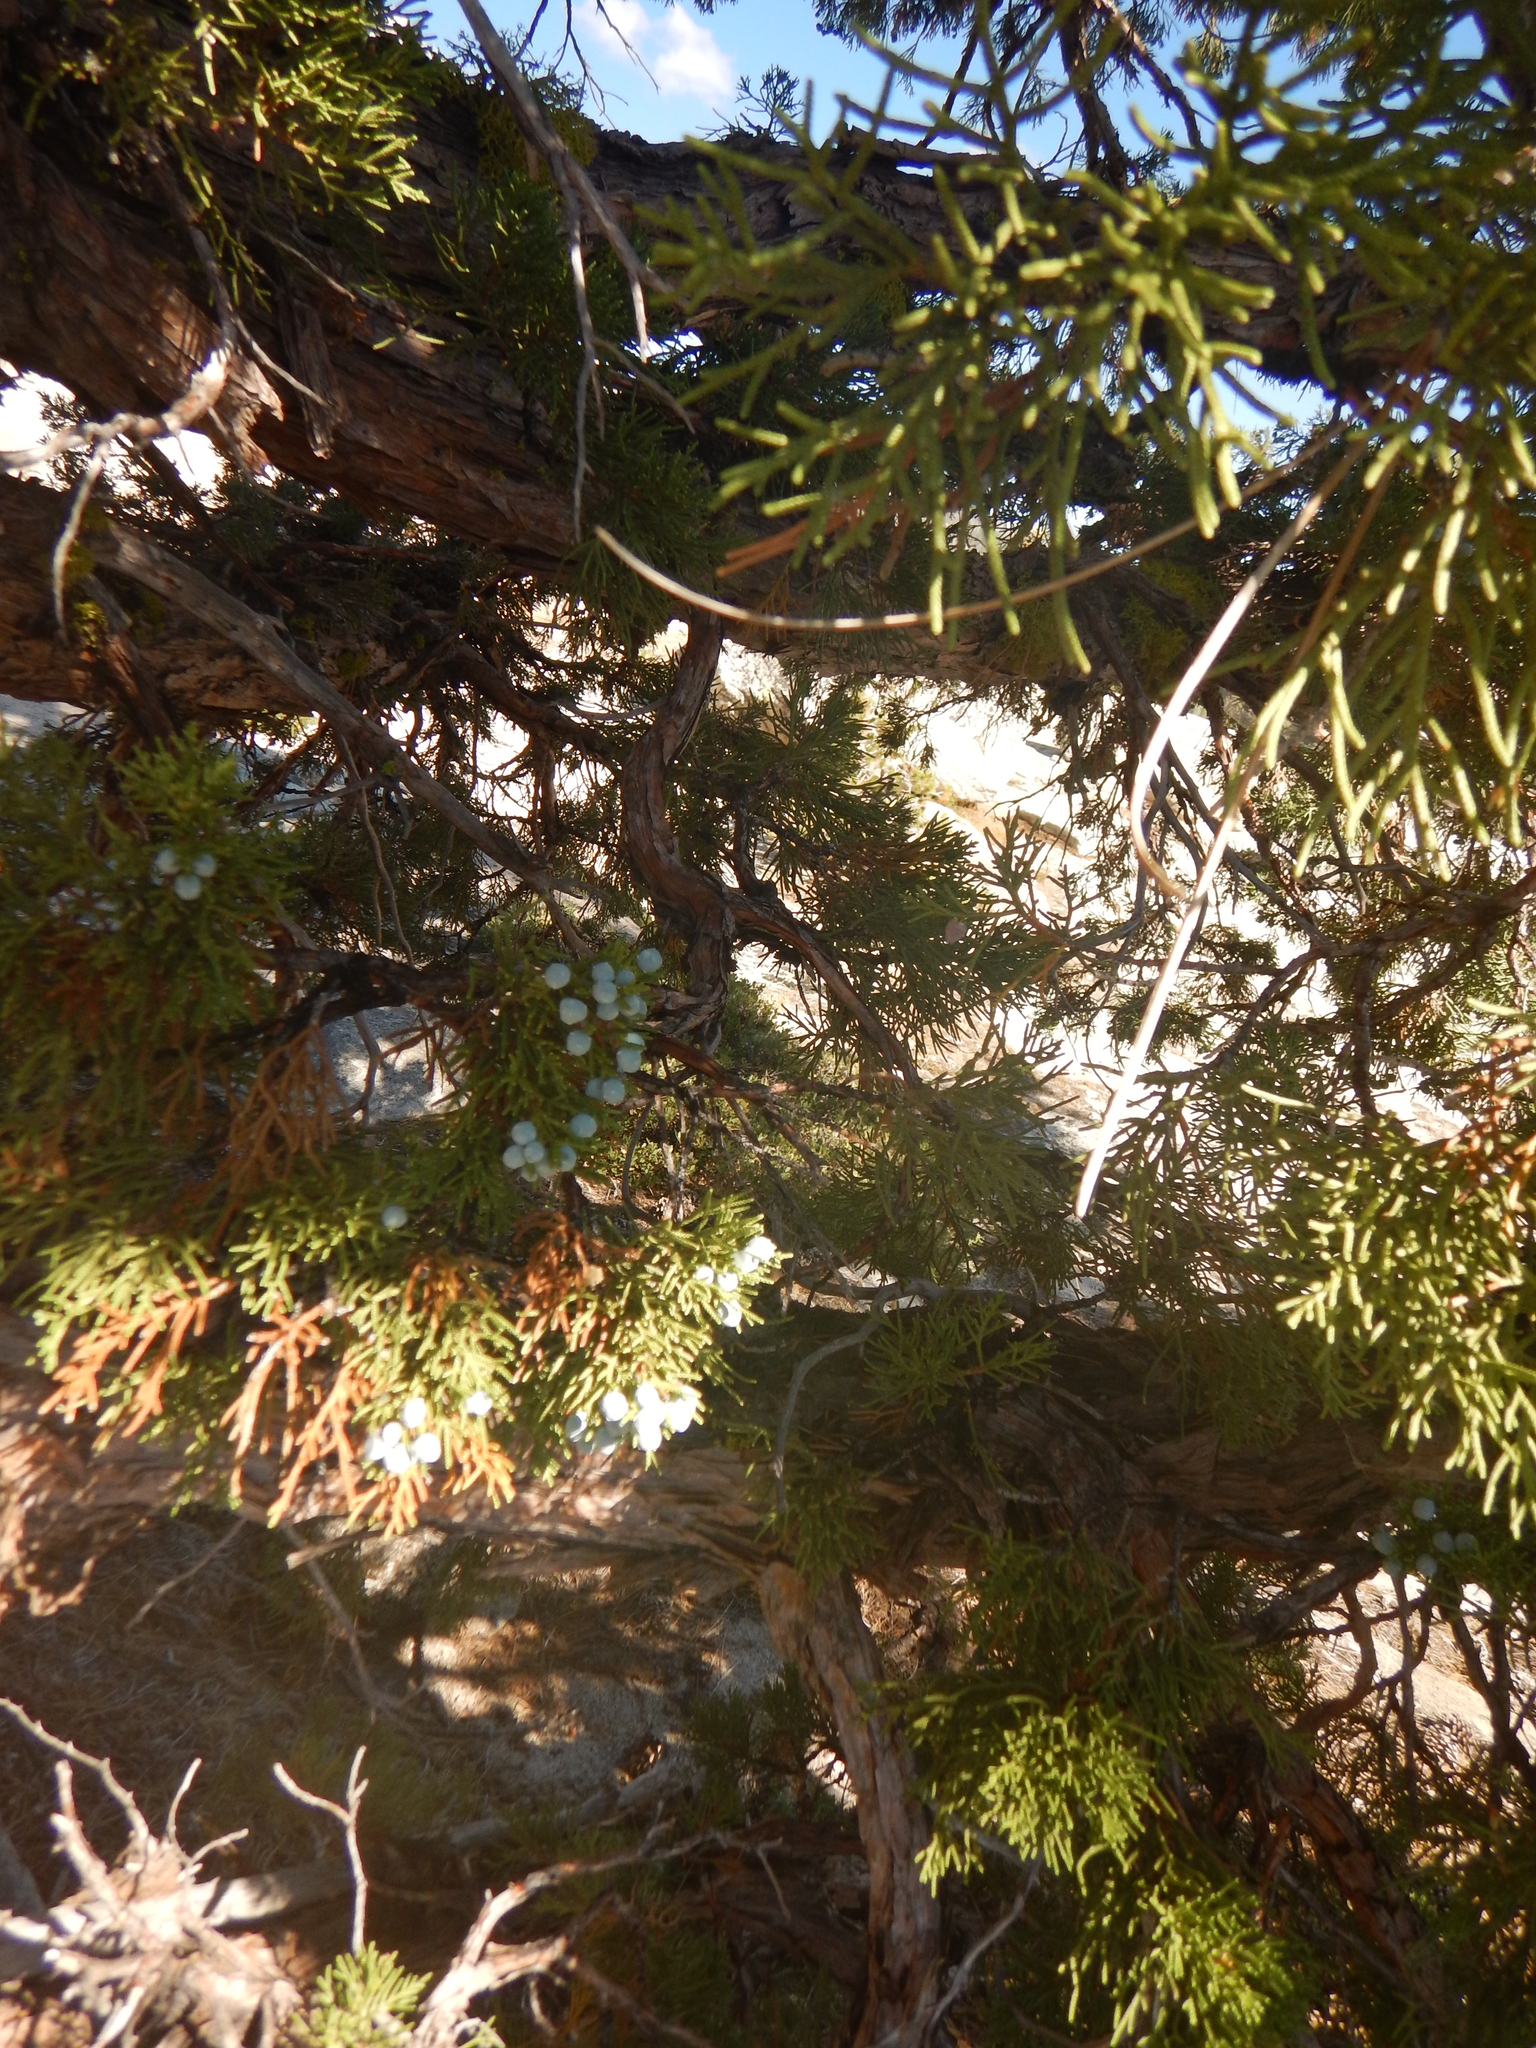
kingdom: Plantae
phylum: Tracheophyta
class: Pinopsida
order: Pinales
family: Cupressaceae
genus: Juniperus
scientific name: Juniperus occidentalis
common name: Western juniper
